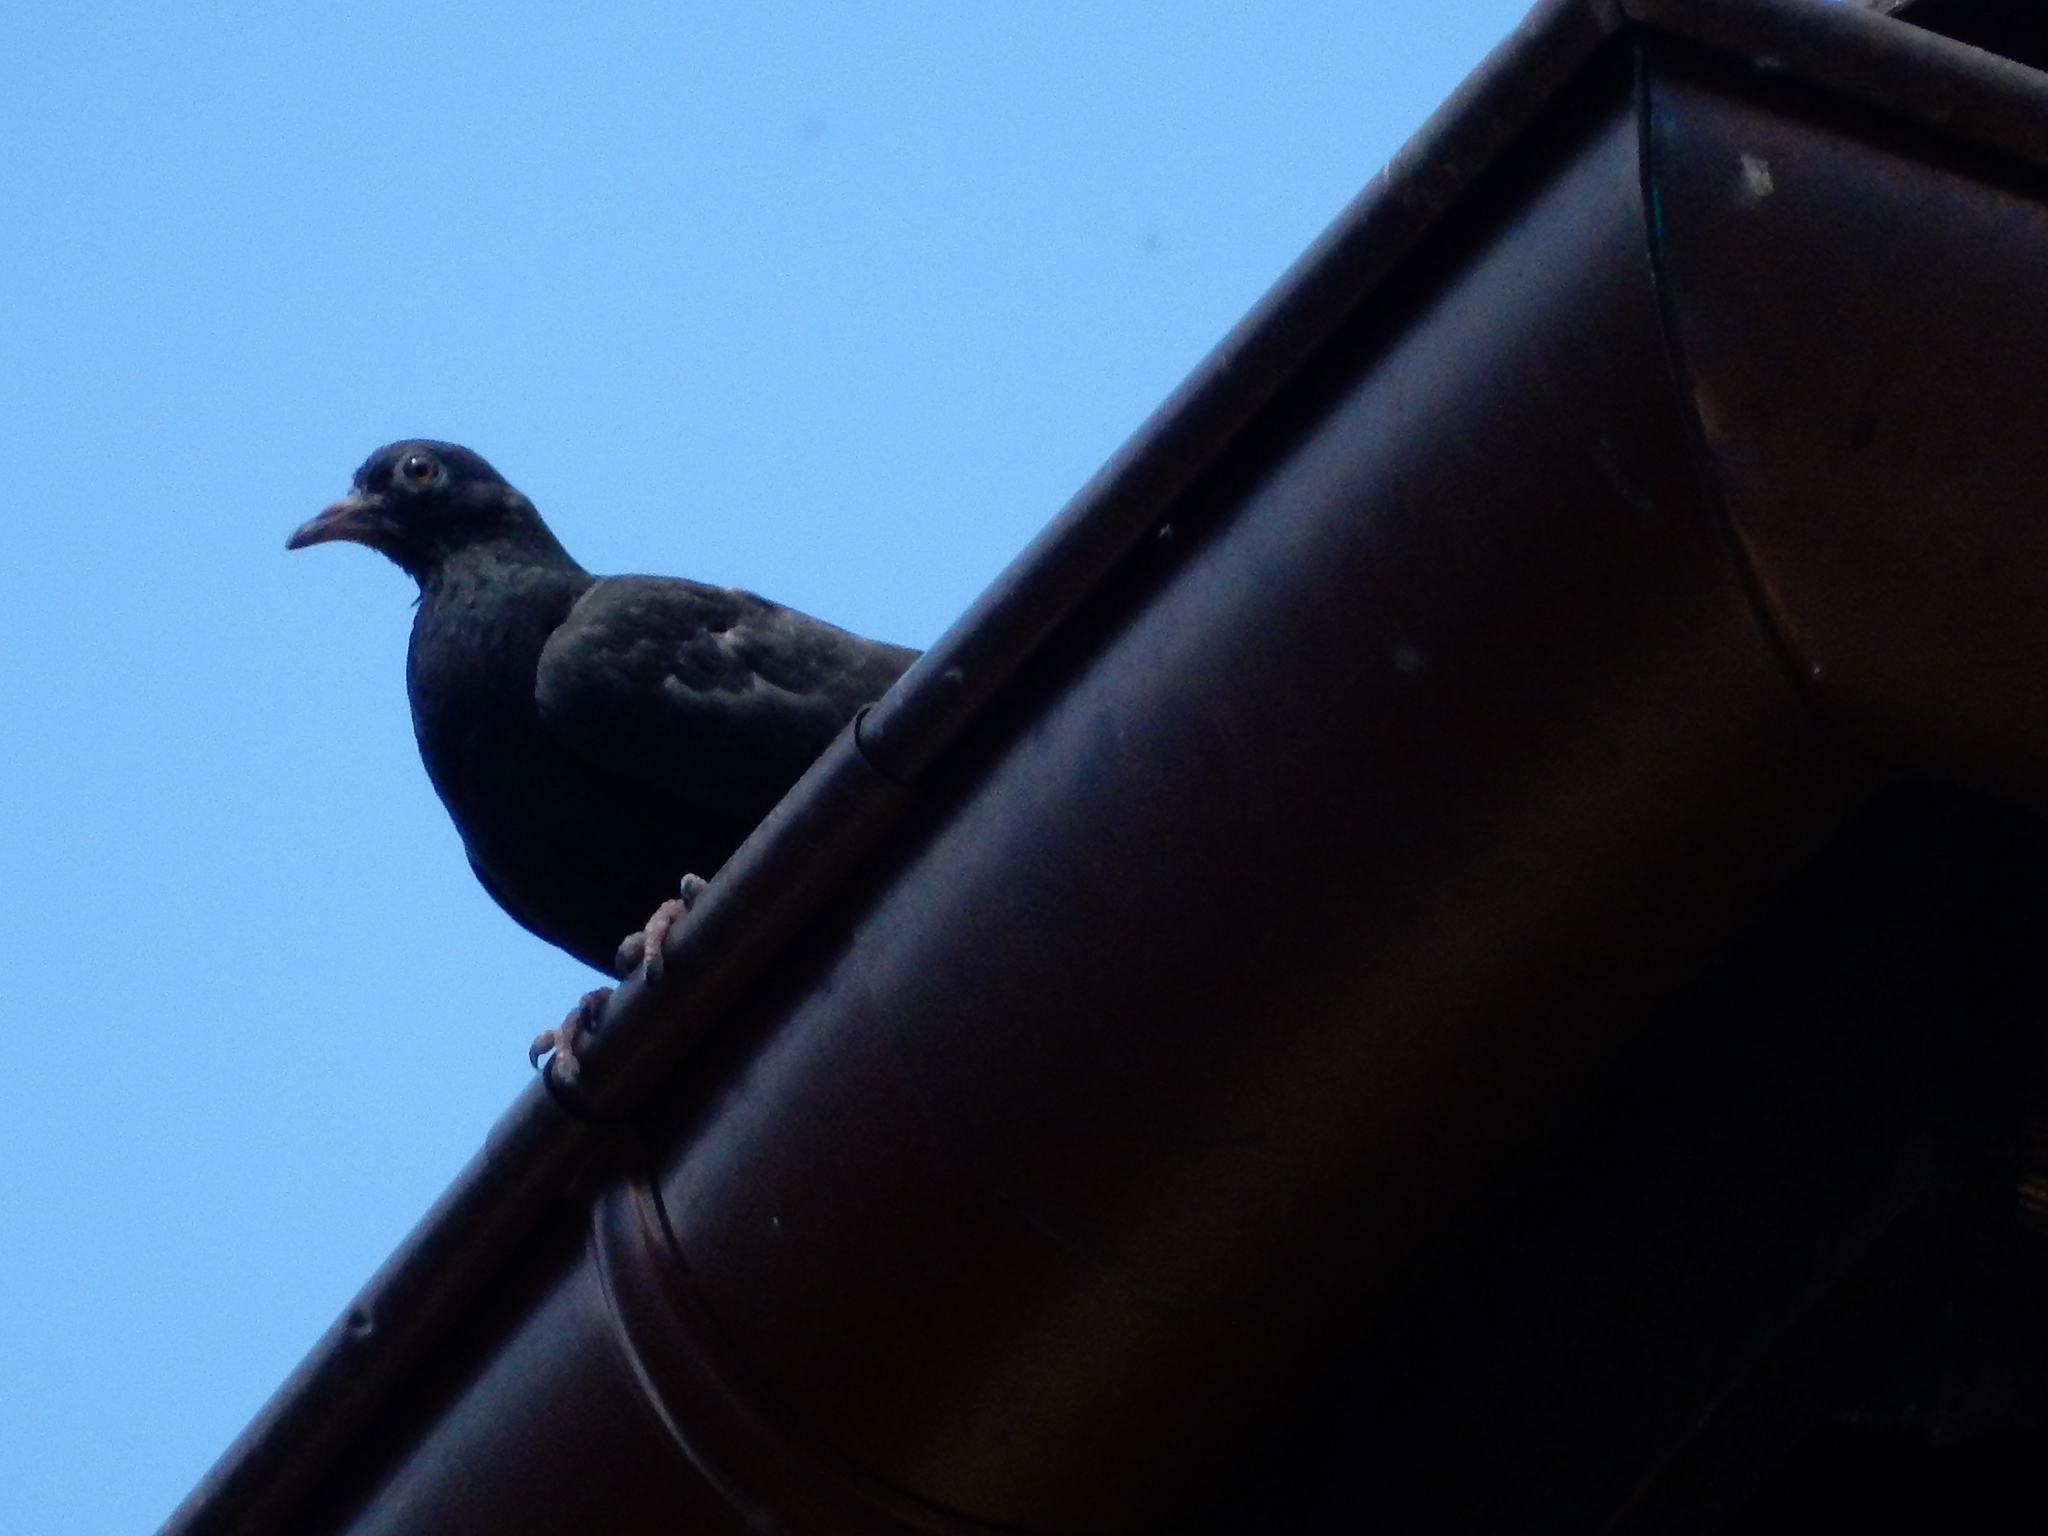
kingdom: Animalia
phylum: Chordata
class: Aves
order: Columbiformes
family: Columbidae
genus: Columba
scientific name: Columba livia
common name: Rock pigeon
